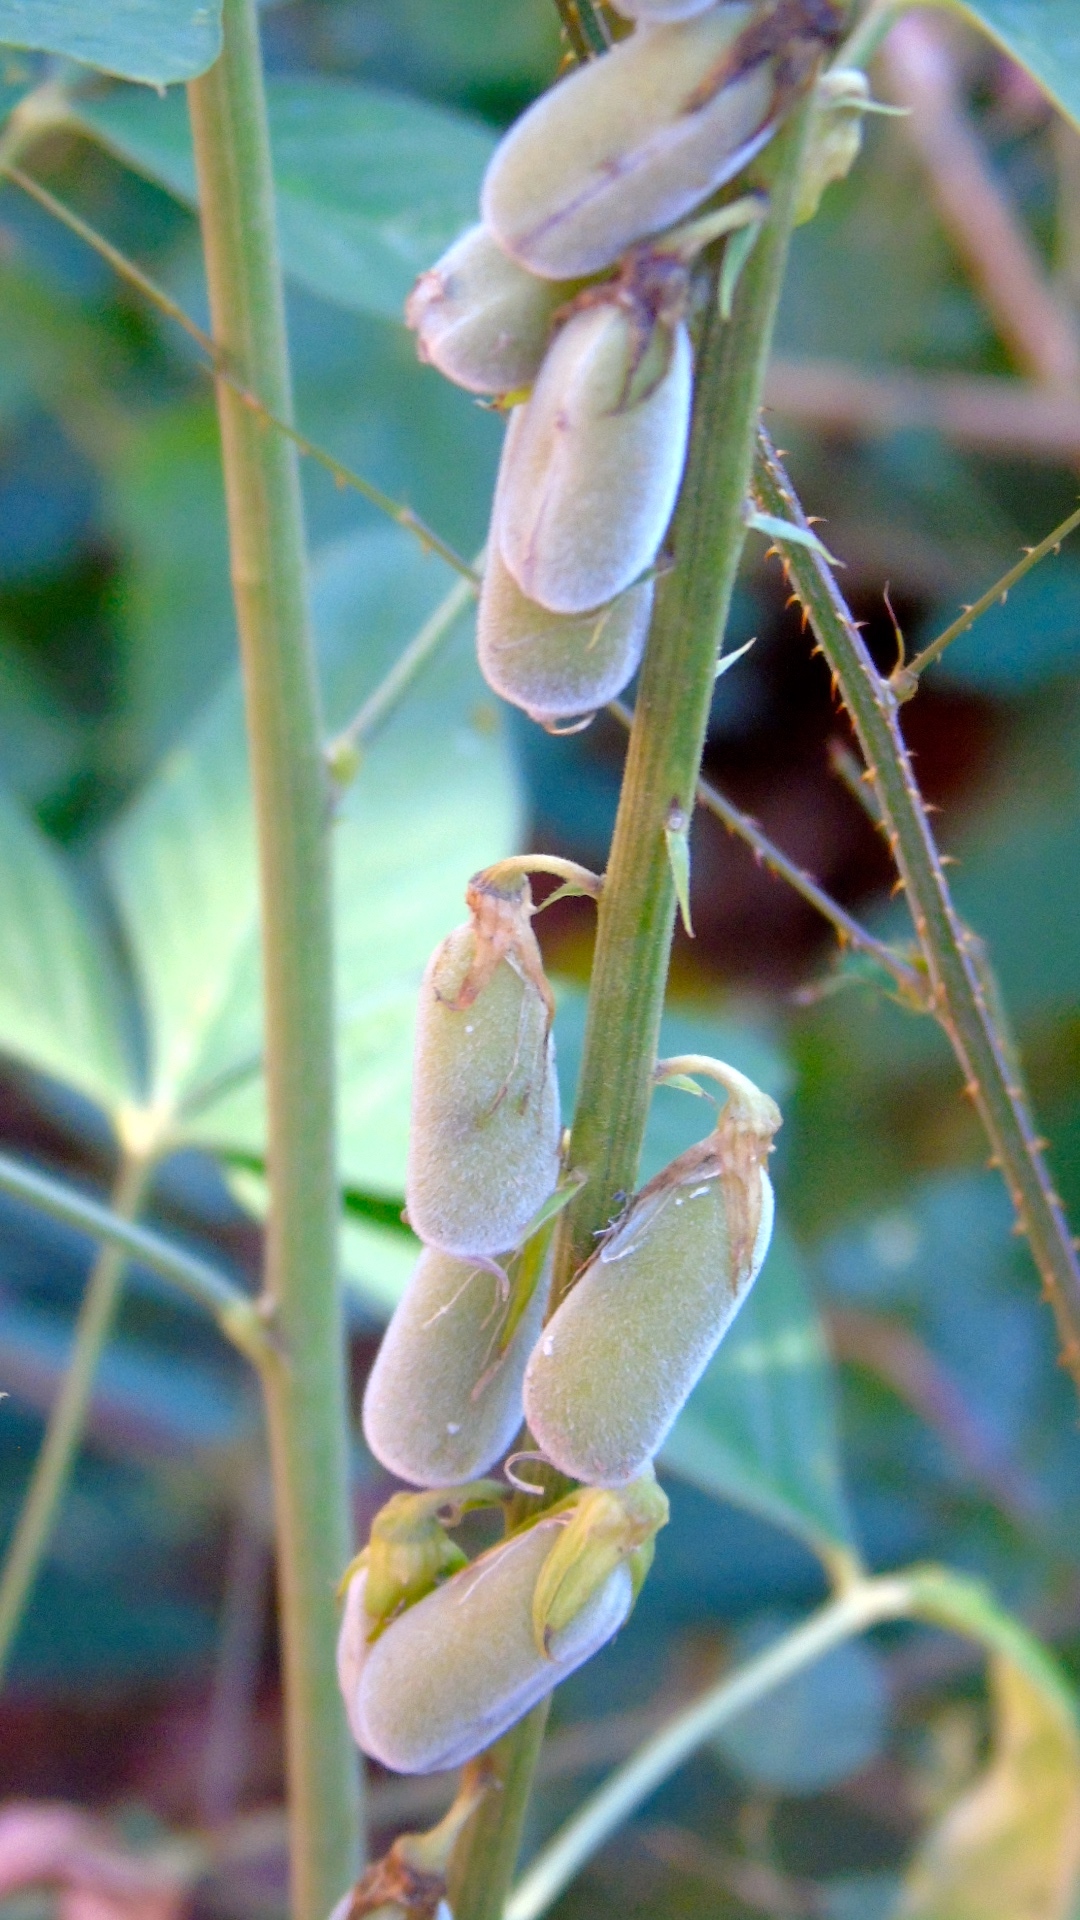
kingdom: Plantae
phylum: Tracheophyta
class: Magnoliopsida
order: Fabales
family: Fabaceae
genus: Crotalaria
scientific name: Crotalaria
